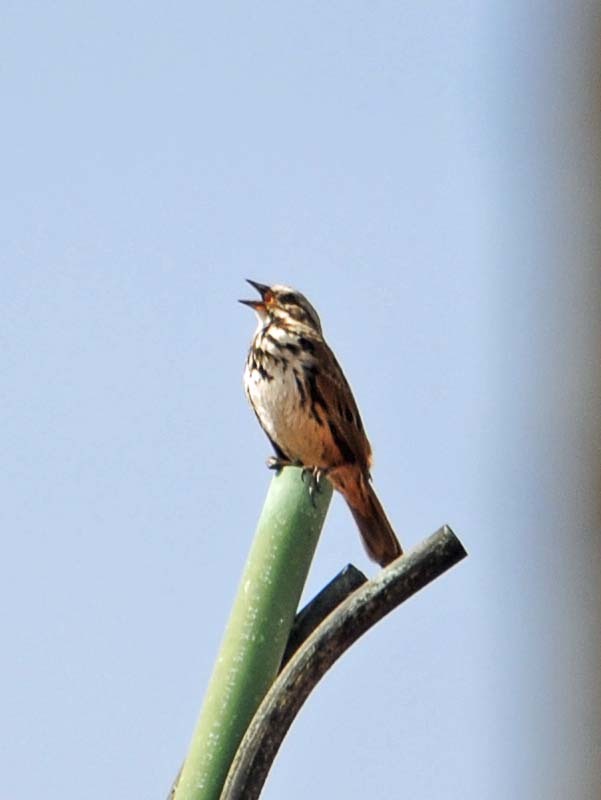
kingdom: Animalia
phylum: Chordata
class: Aves
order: Passeriformes
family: Passerellidae
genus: Melospiza
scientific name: Melospiza melodia
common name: Song sparrow
